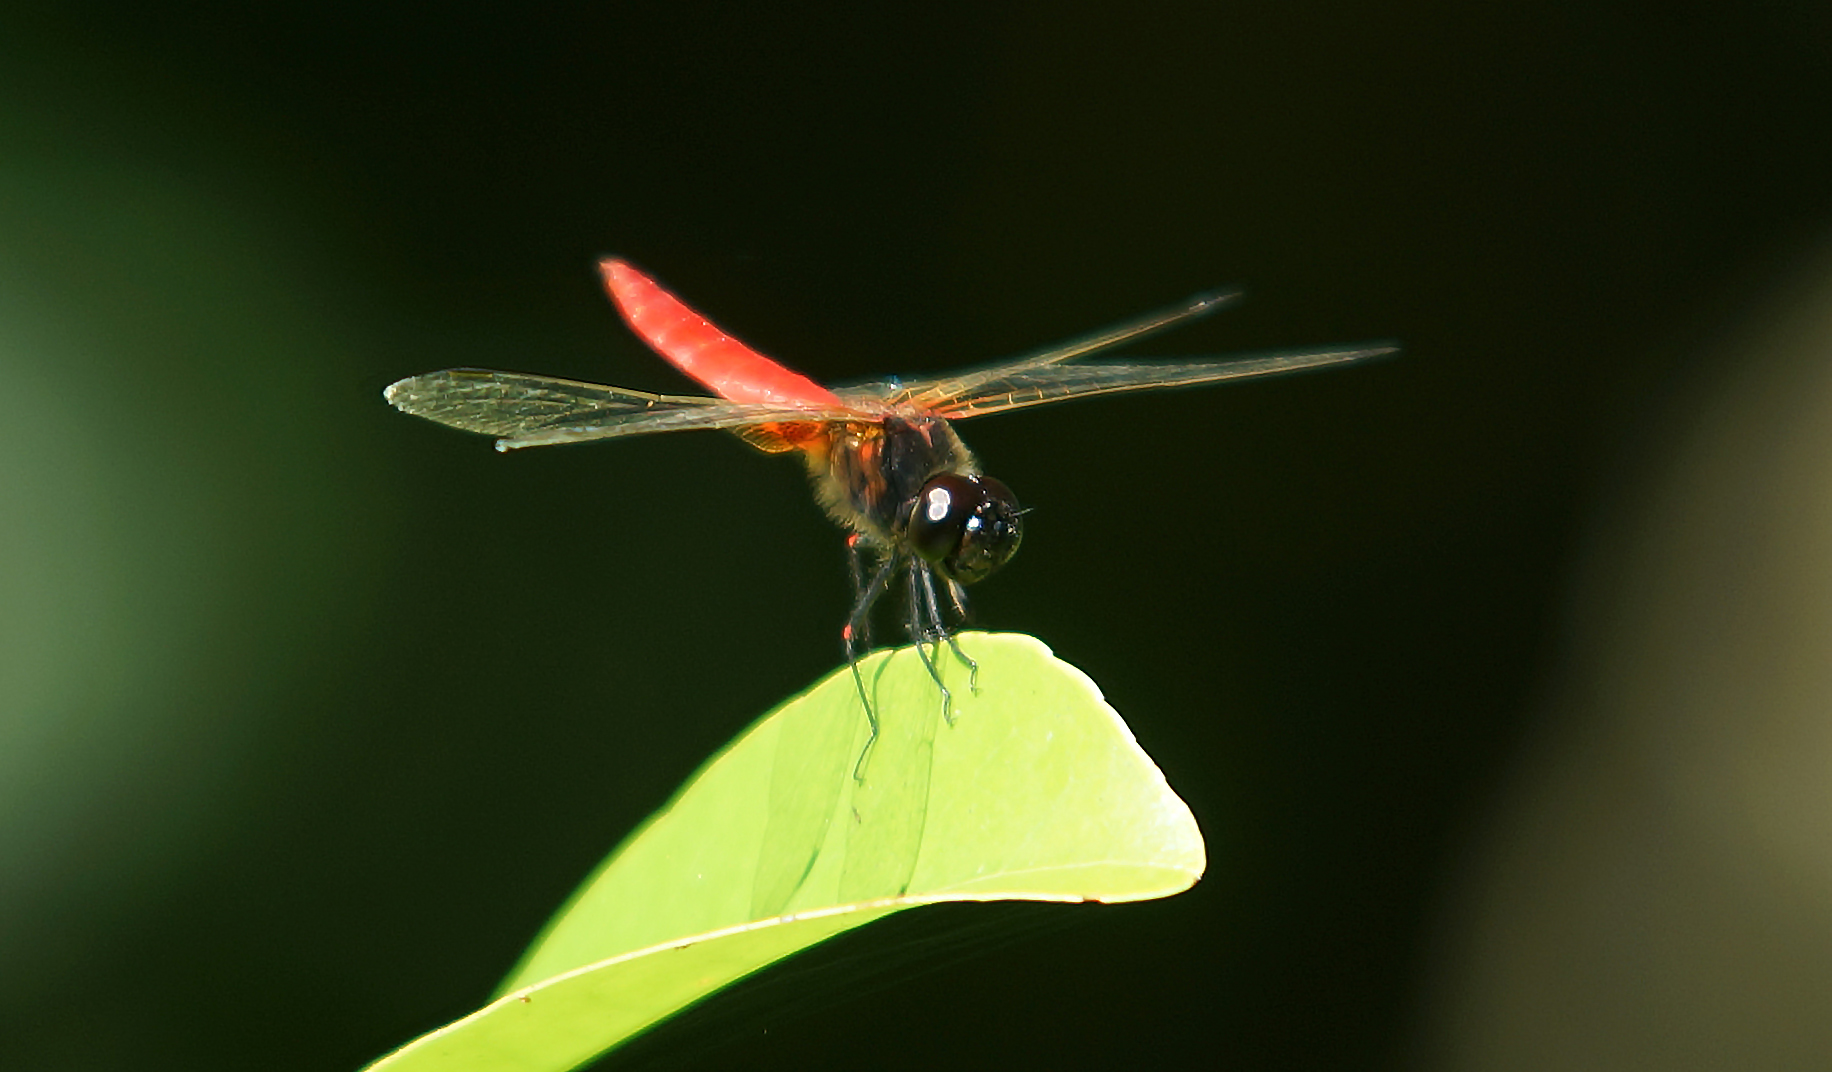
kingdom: Animalia
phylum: Arthropoda
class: Insecta
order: Odonata
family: Libellulidae
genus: Aethriamanta
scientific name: Aethriamanta brevipennis
